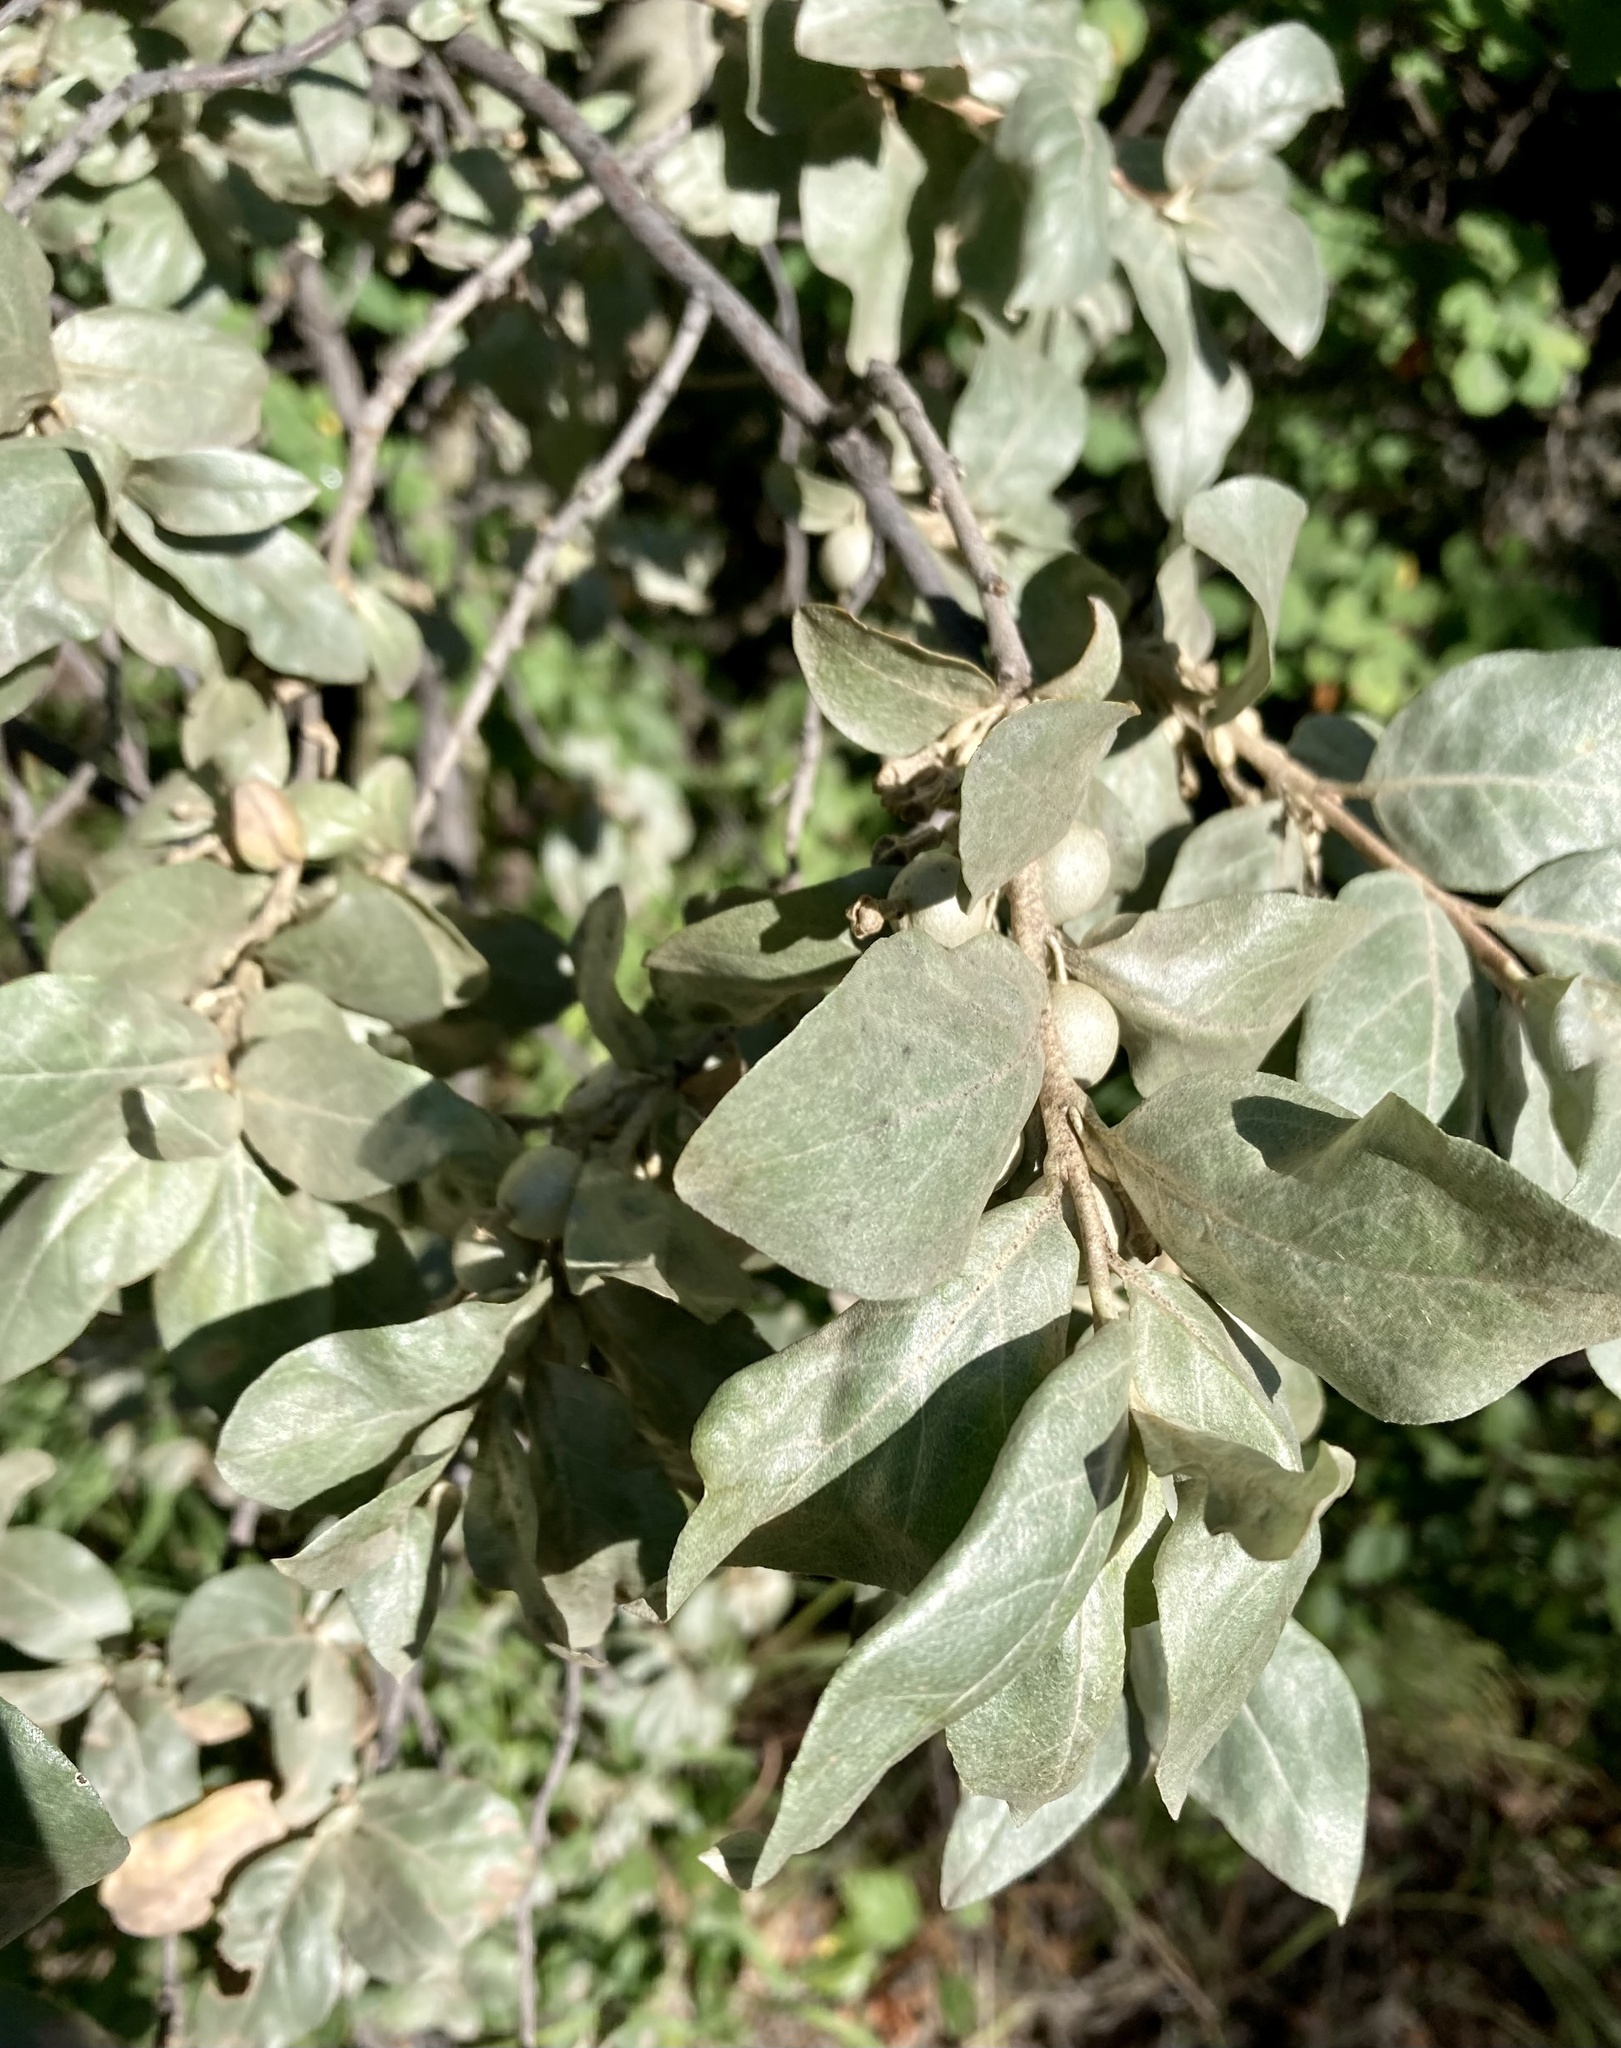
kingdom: Plantae
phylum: Tracheophyta
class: Magnoliopsida
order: Rosales
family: Elaeagnaceae
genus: Elaeagnus
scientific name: Elaeagnus commutata
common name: Silverberry
